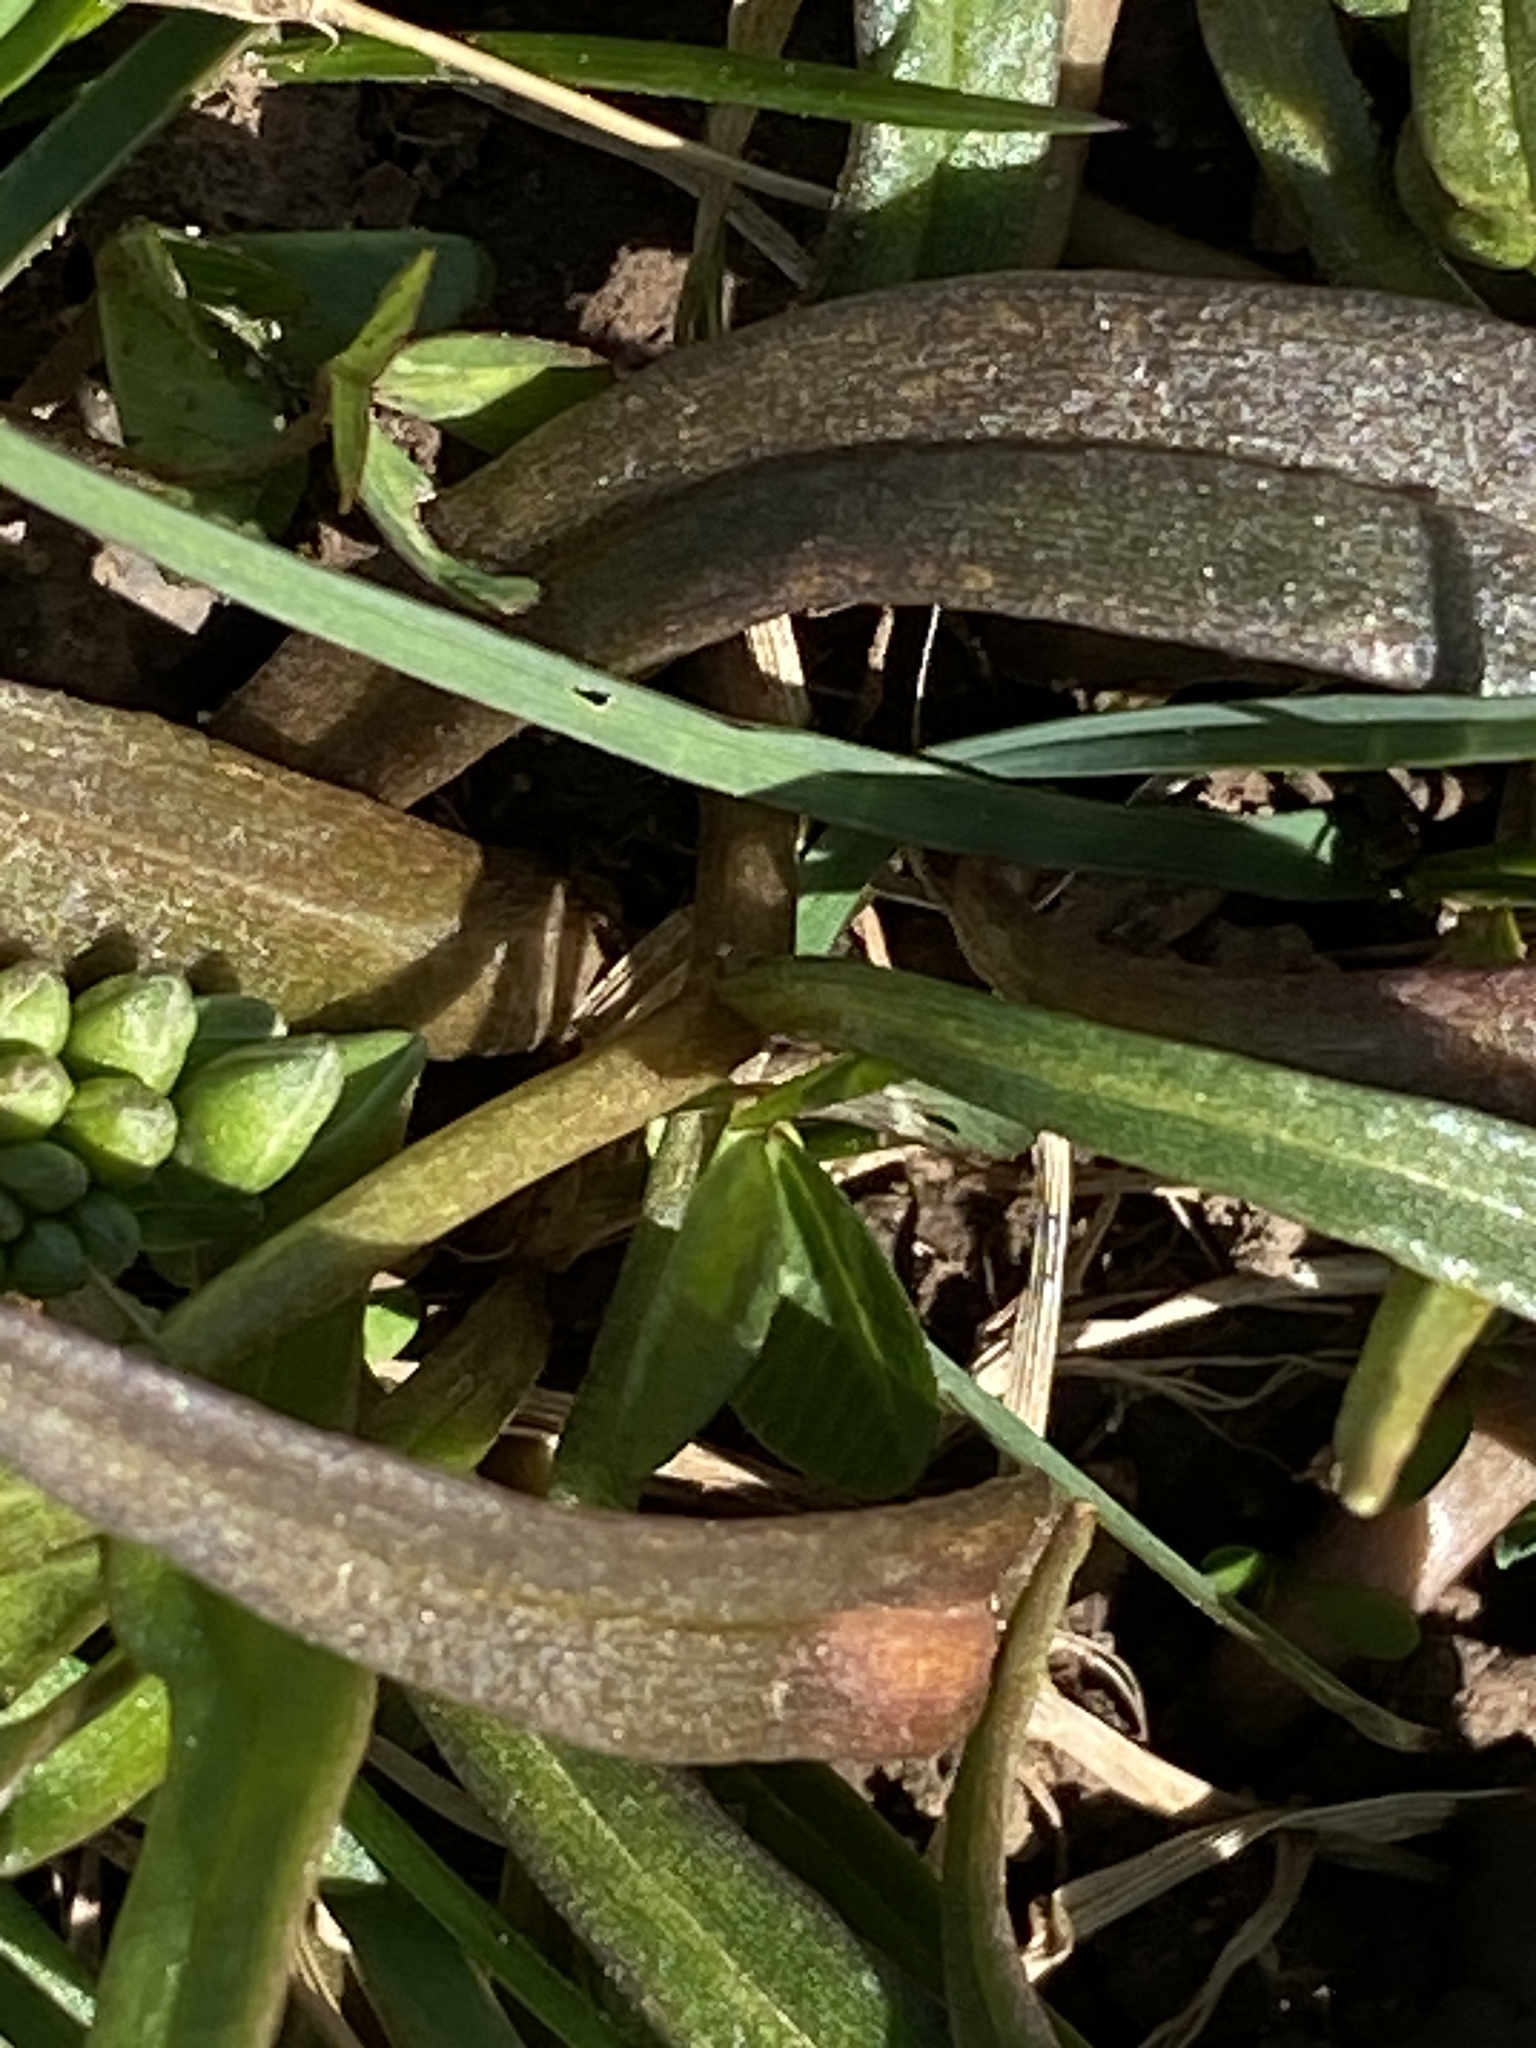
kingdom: Plantae
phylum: Tracheophyta
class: Magnoliopsida
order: Caryophyllales
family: Montiaceae
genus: Claytonia
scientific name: Claytonia virginica
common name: Virginia springbeauty
